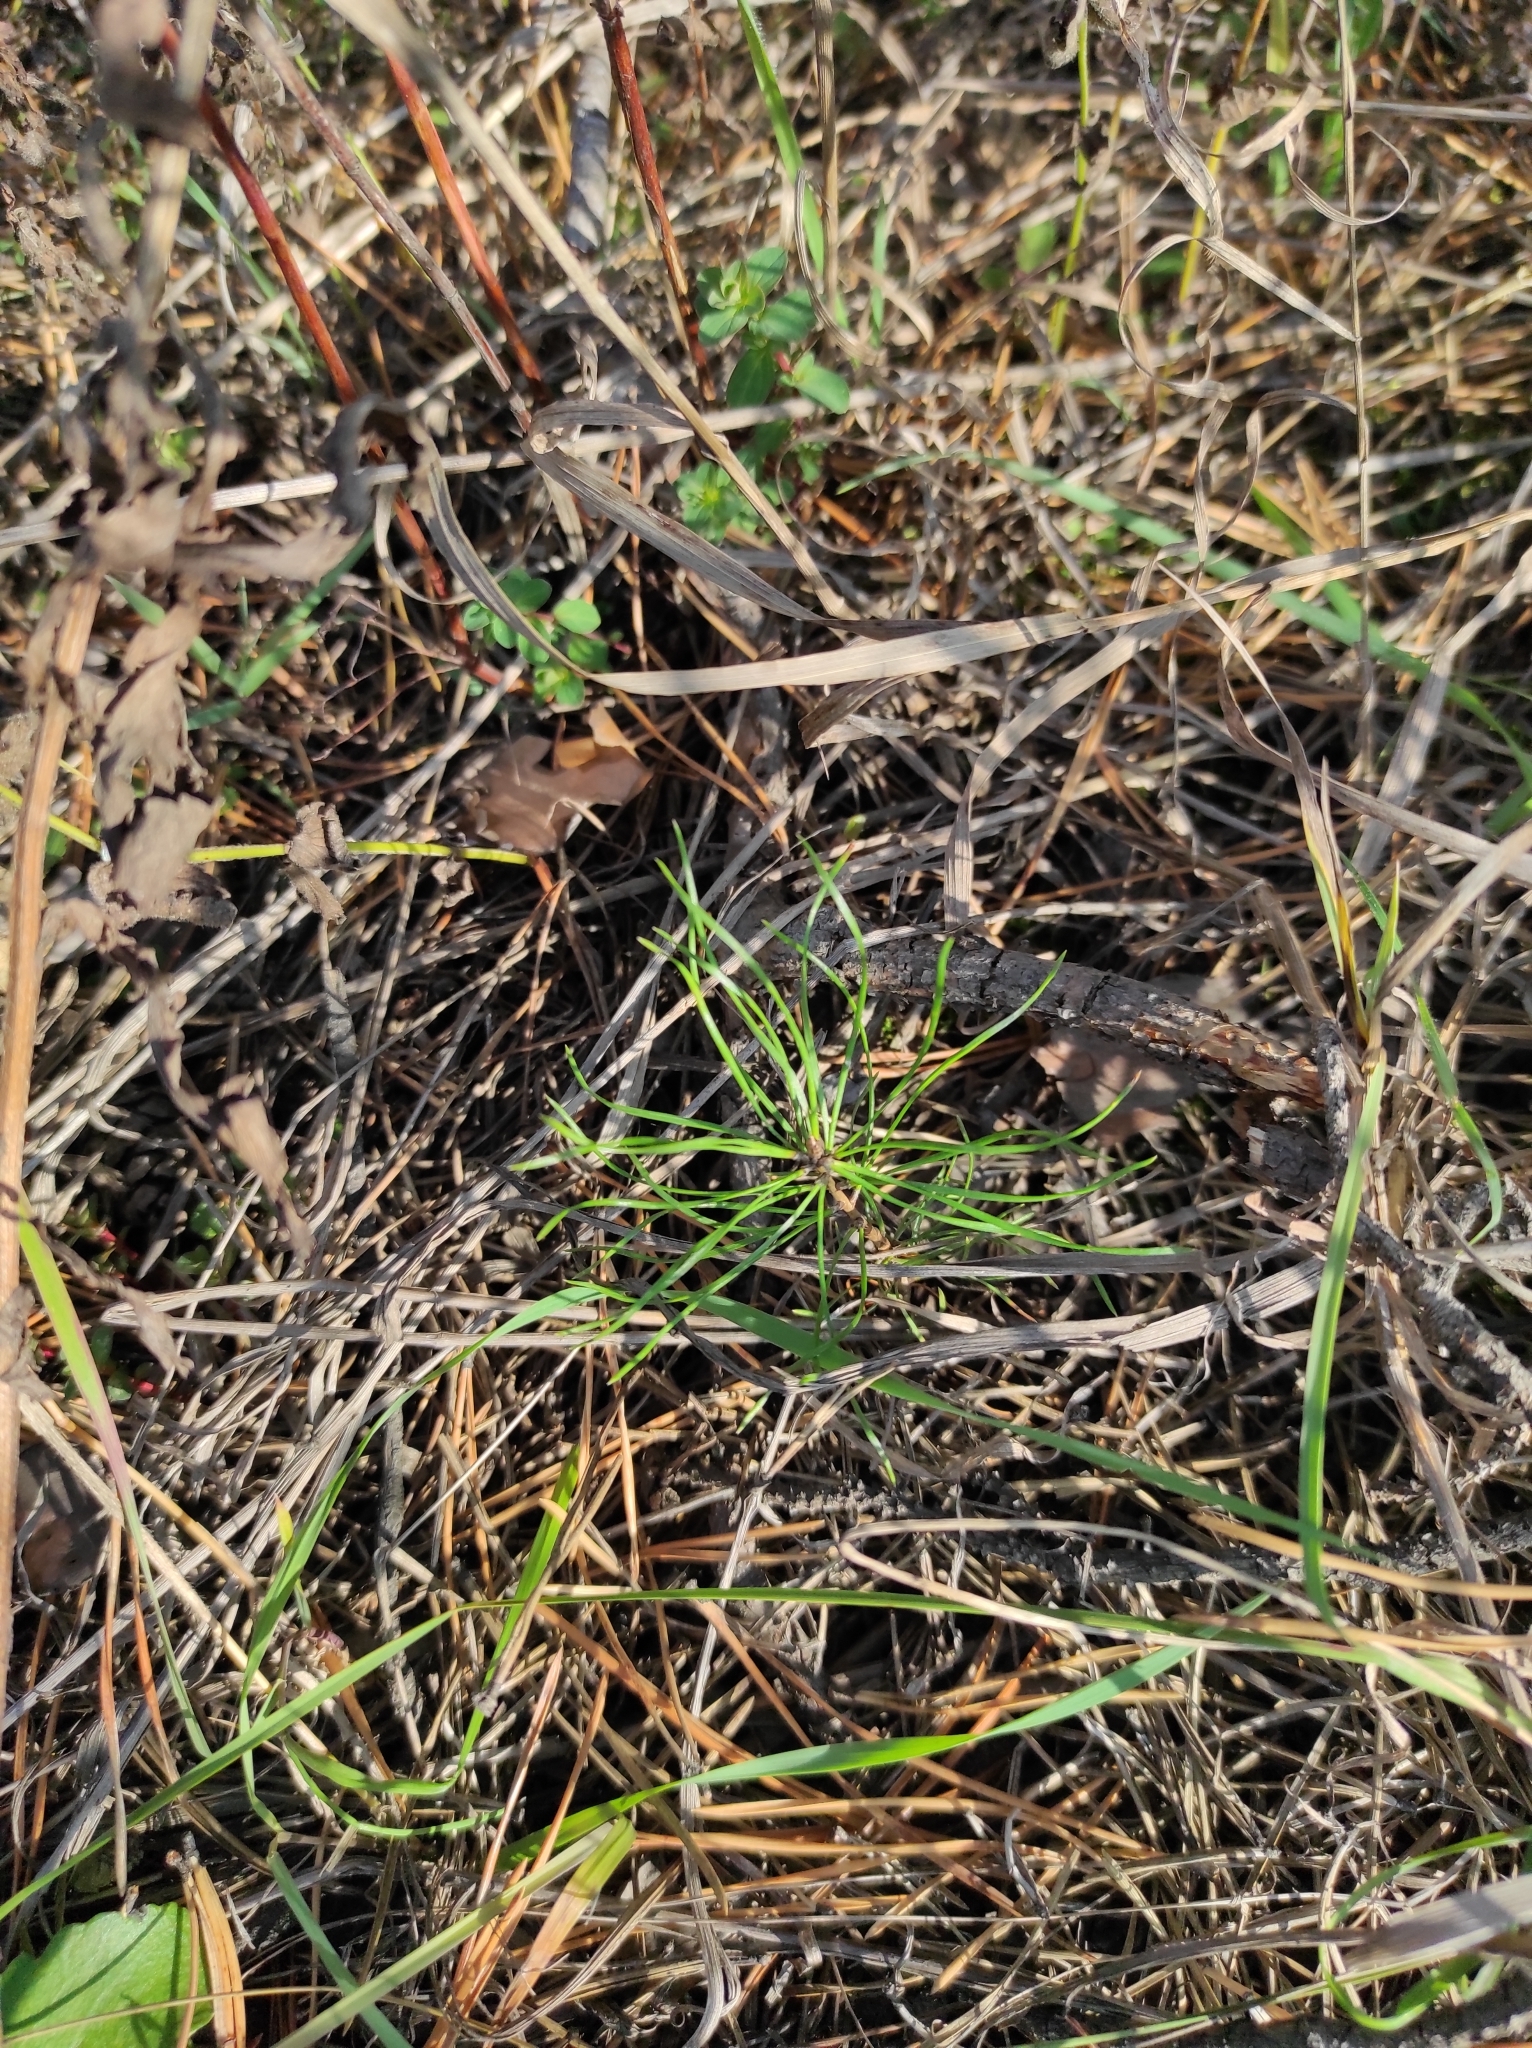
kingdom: Plantae
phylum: Tracheophyta
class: Pinopsida
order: Pinales
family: Pinaceae
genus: Pinus
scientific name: Pinus sylvestris
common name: Scots pine
